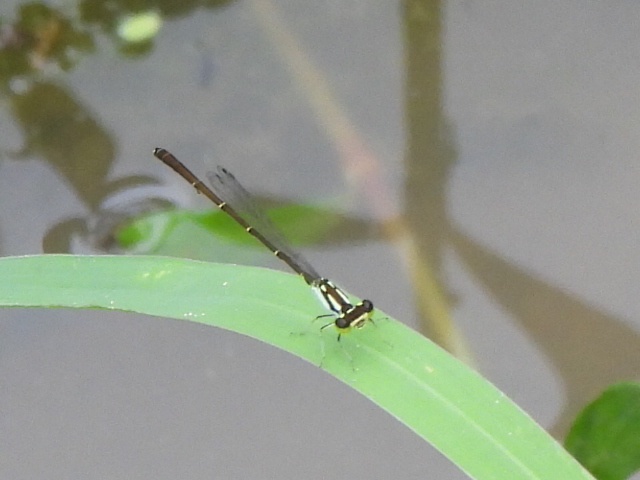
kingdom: Animalia
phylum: Arthropoda
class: Insecta
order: Odonata
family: Coenagrionidae
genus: Ischnura
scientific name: Ischnura posita
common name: Fragile forktail
